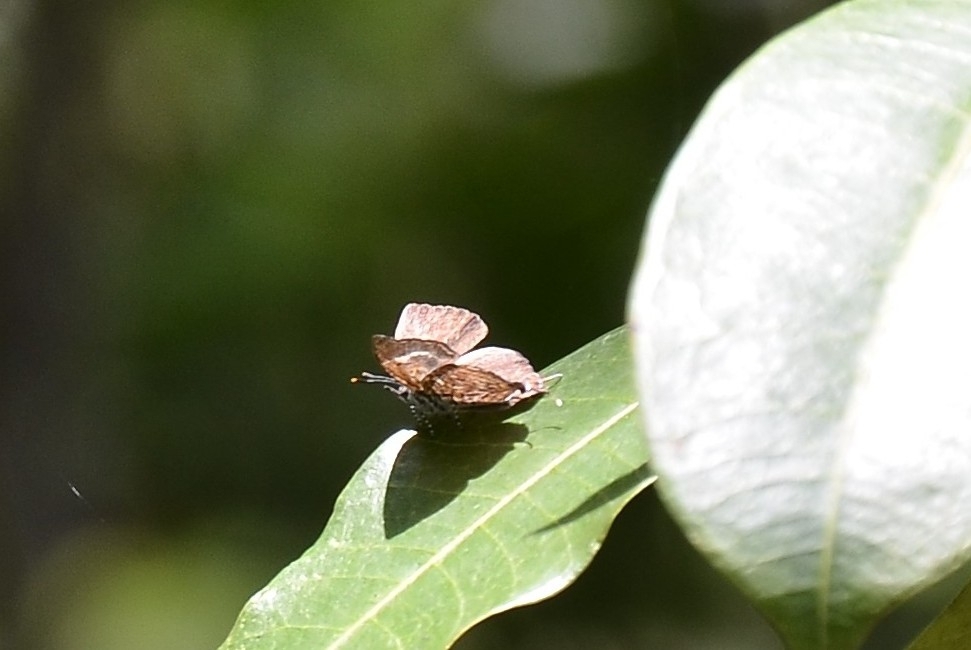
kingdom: Animalia
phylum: Arthropoda
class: Insecta
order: Lepidoptera
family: Lycaenidae
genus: Rathinda
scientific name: Rathinda amor
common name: Monkey puzzle
